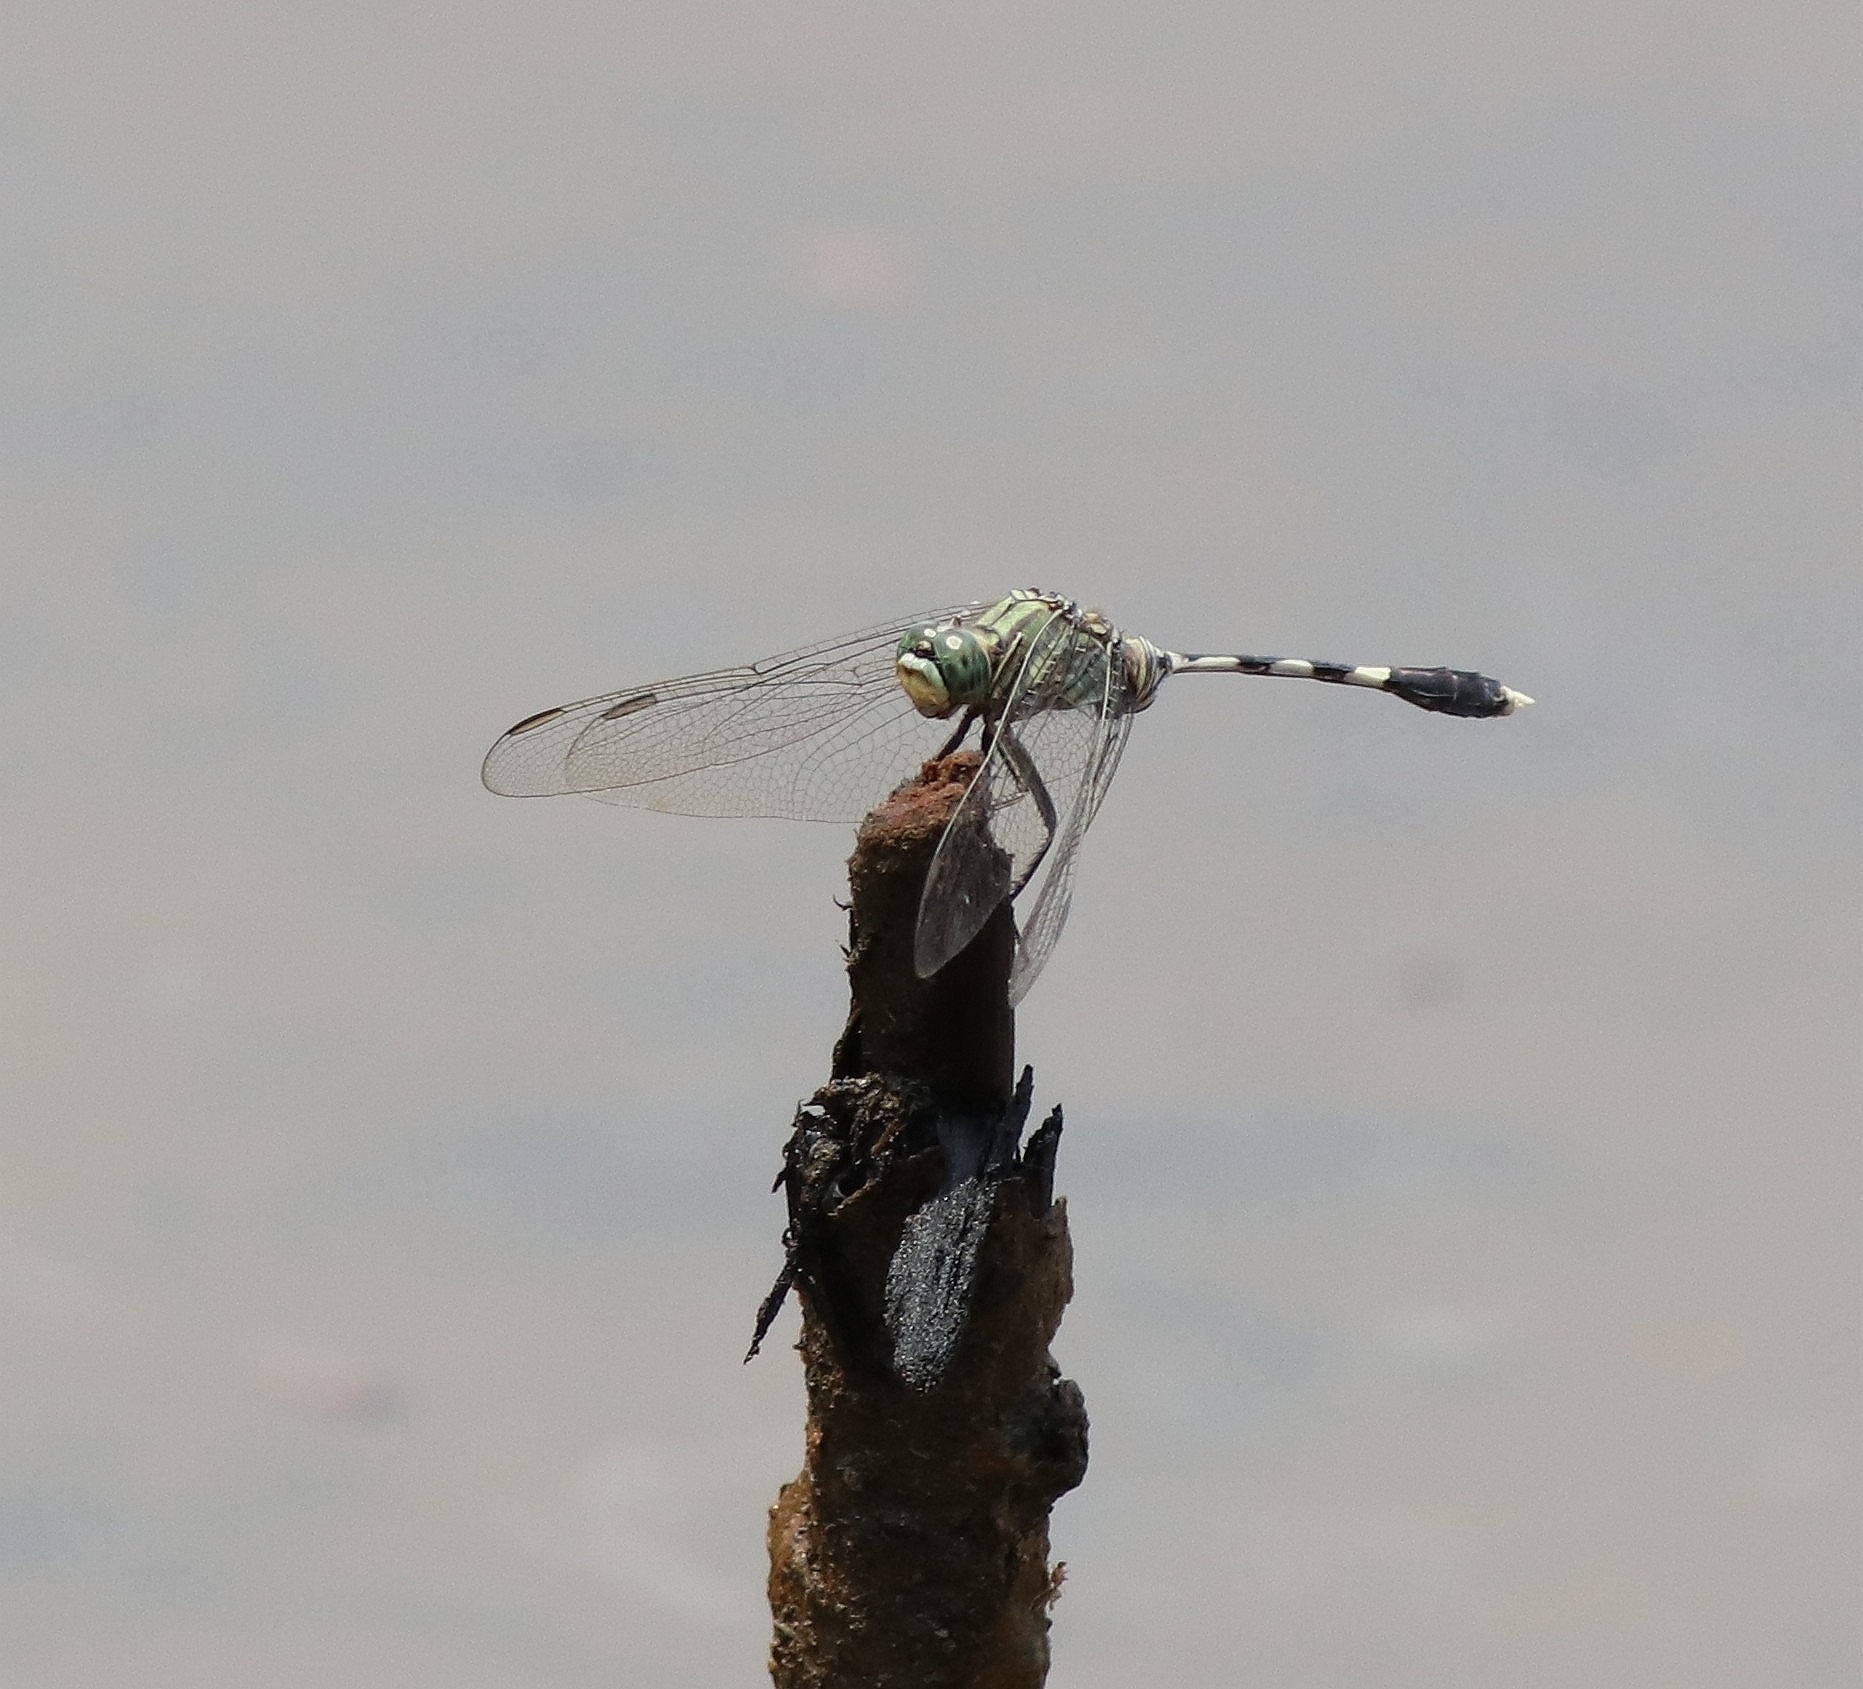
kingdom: Animalia
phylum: Arthropoda
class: Insecta
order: Odonata
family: Libellulidae
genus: Orthetrum
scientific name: Orthetrum sabina
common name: Slender skimmer
